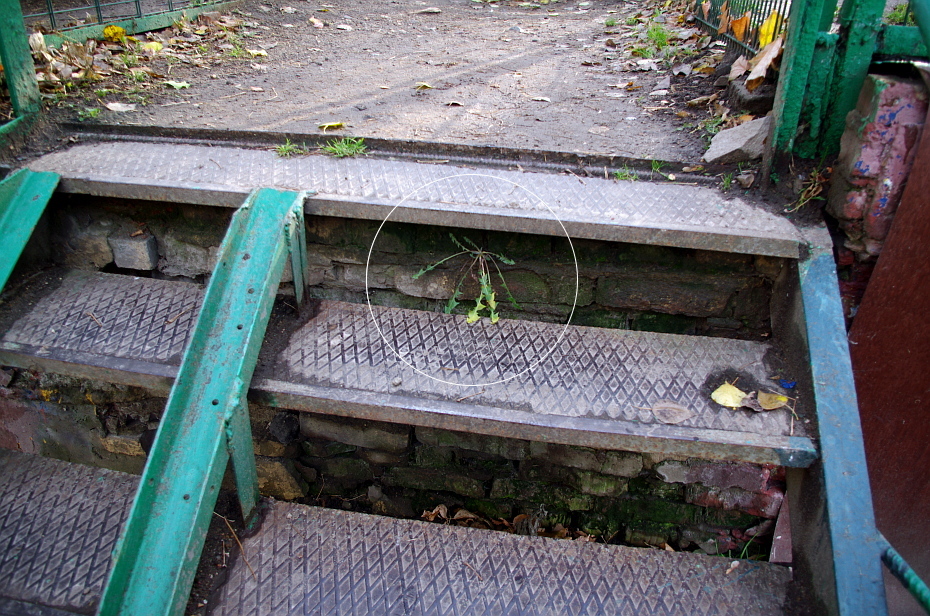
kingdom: Plantae
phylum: Tracheophyta
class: Magnoliopsida
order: Asterales
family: Asteraceae
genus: Taraxacum
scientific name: Taraxacum officinale
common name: Common dandelion
